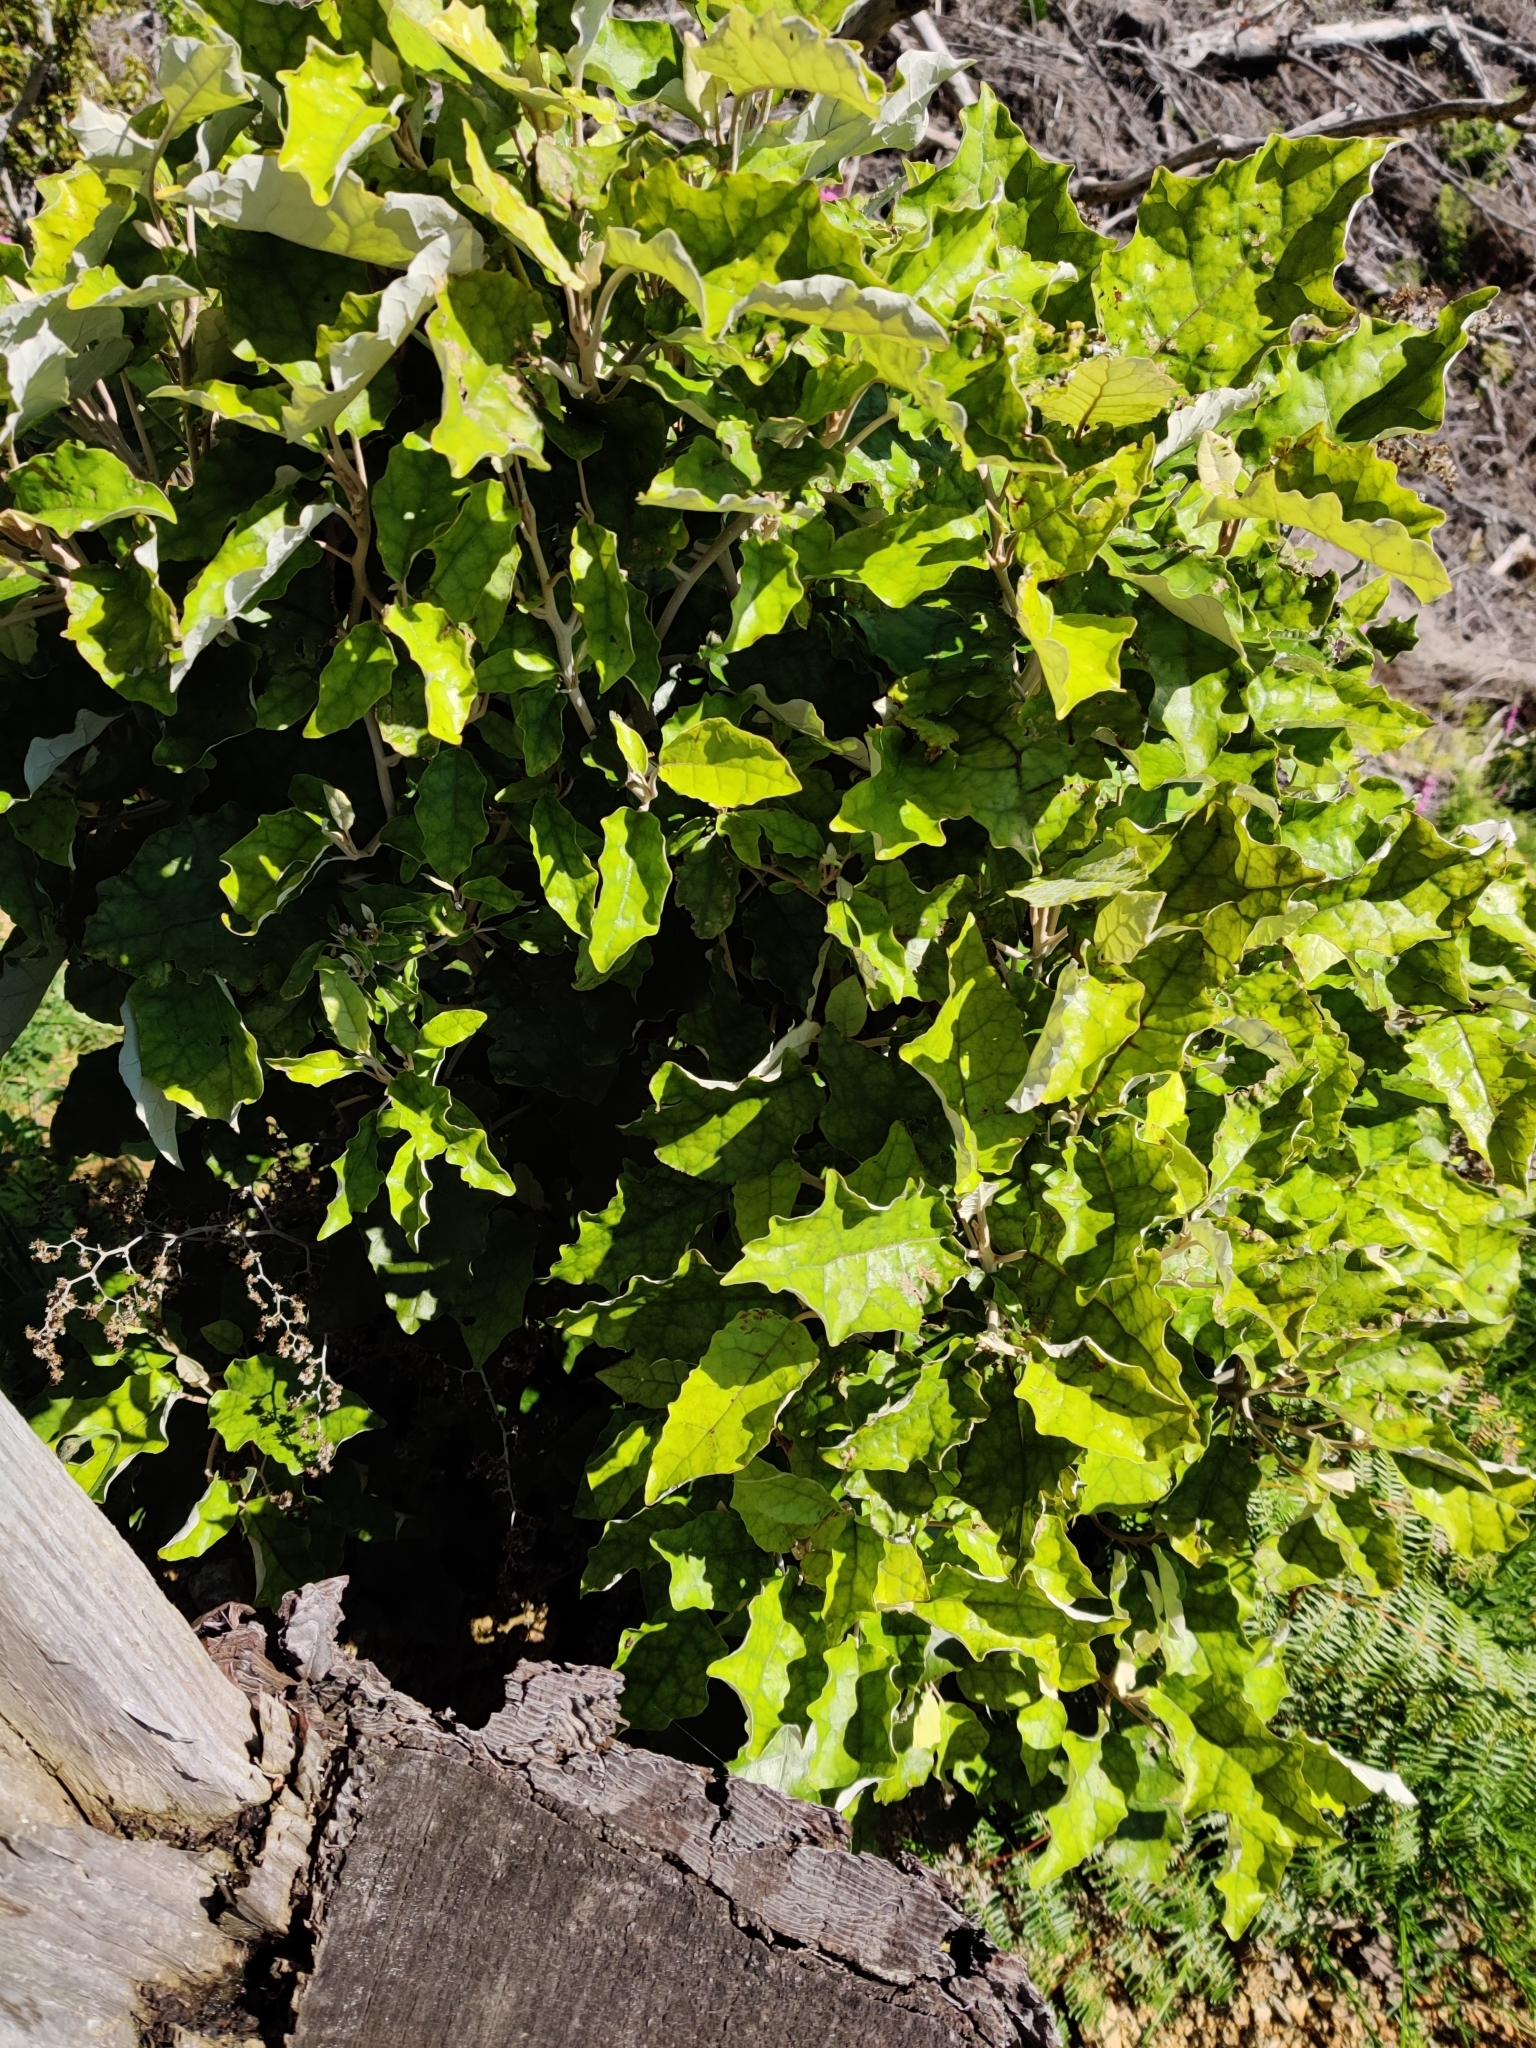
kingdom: Plantae
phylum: Tracheophyta
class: Magnoliopsida
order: Asterales
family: Asteraceae
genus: Brachyglottis
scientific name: Brachyglottis repanda
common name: Hedge ragwort
